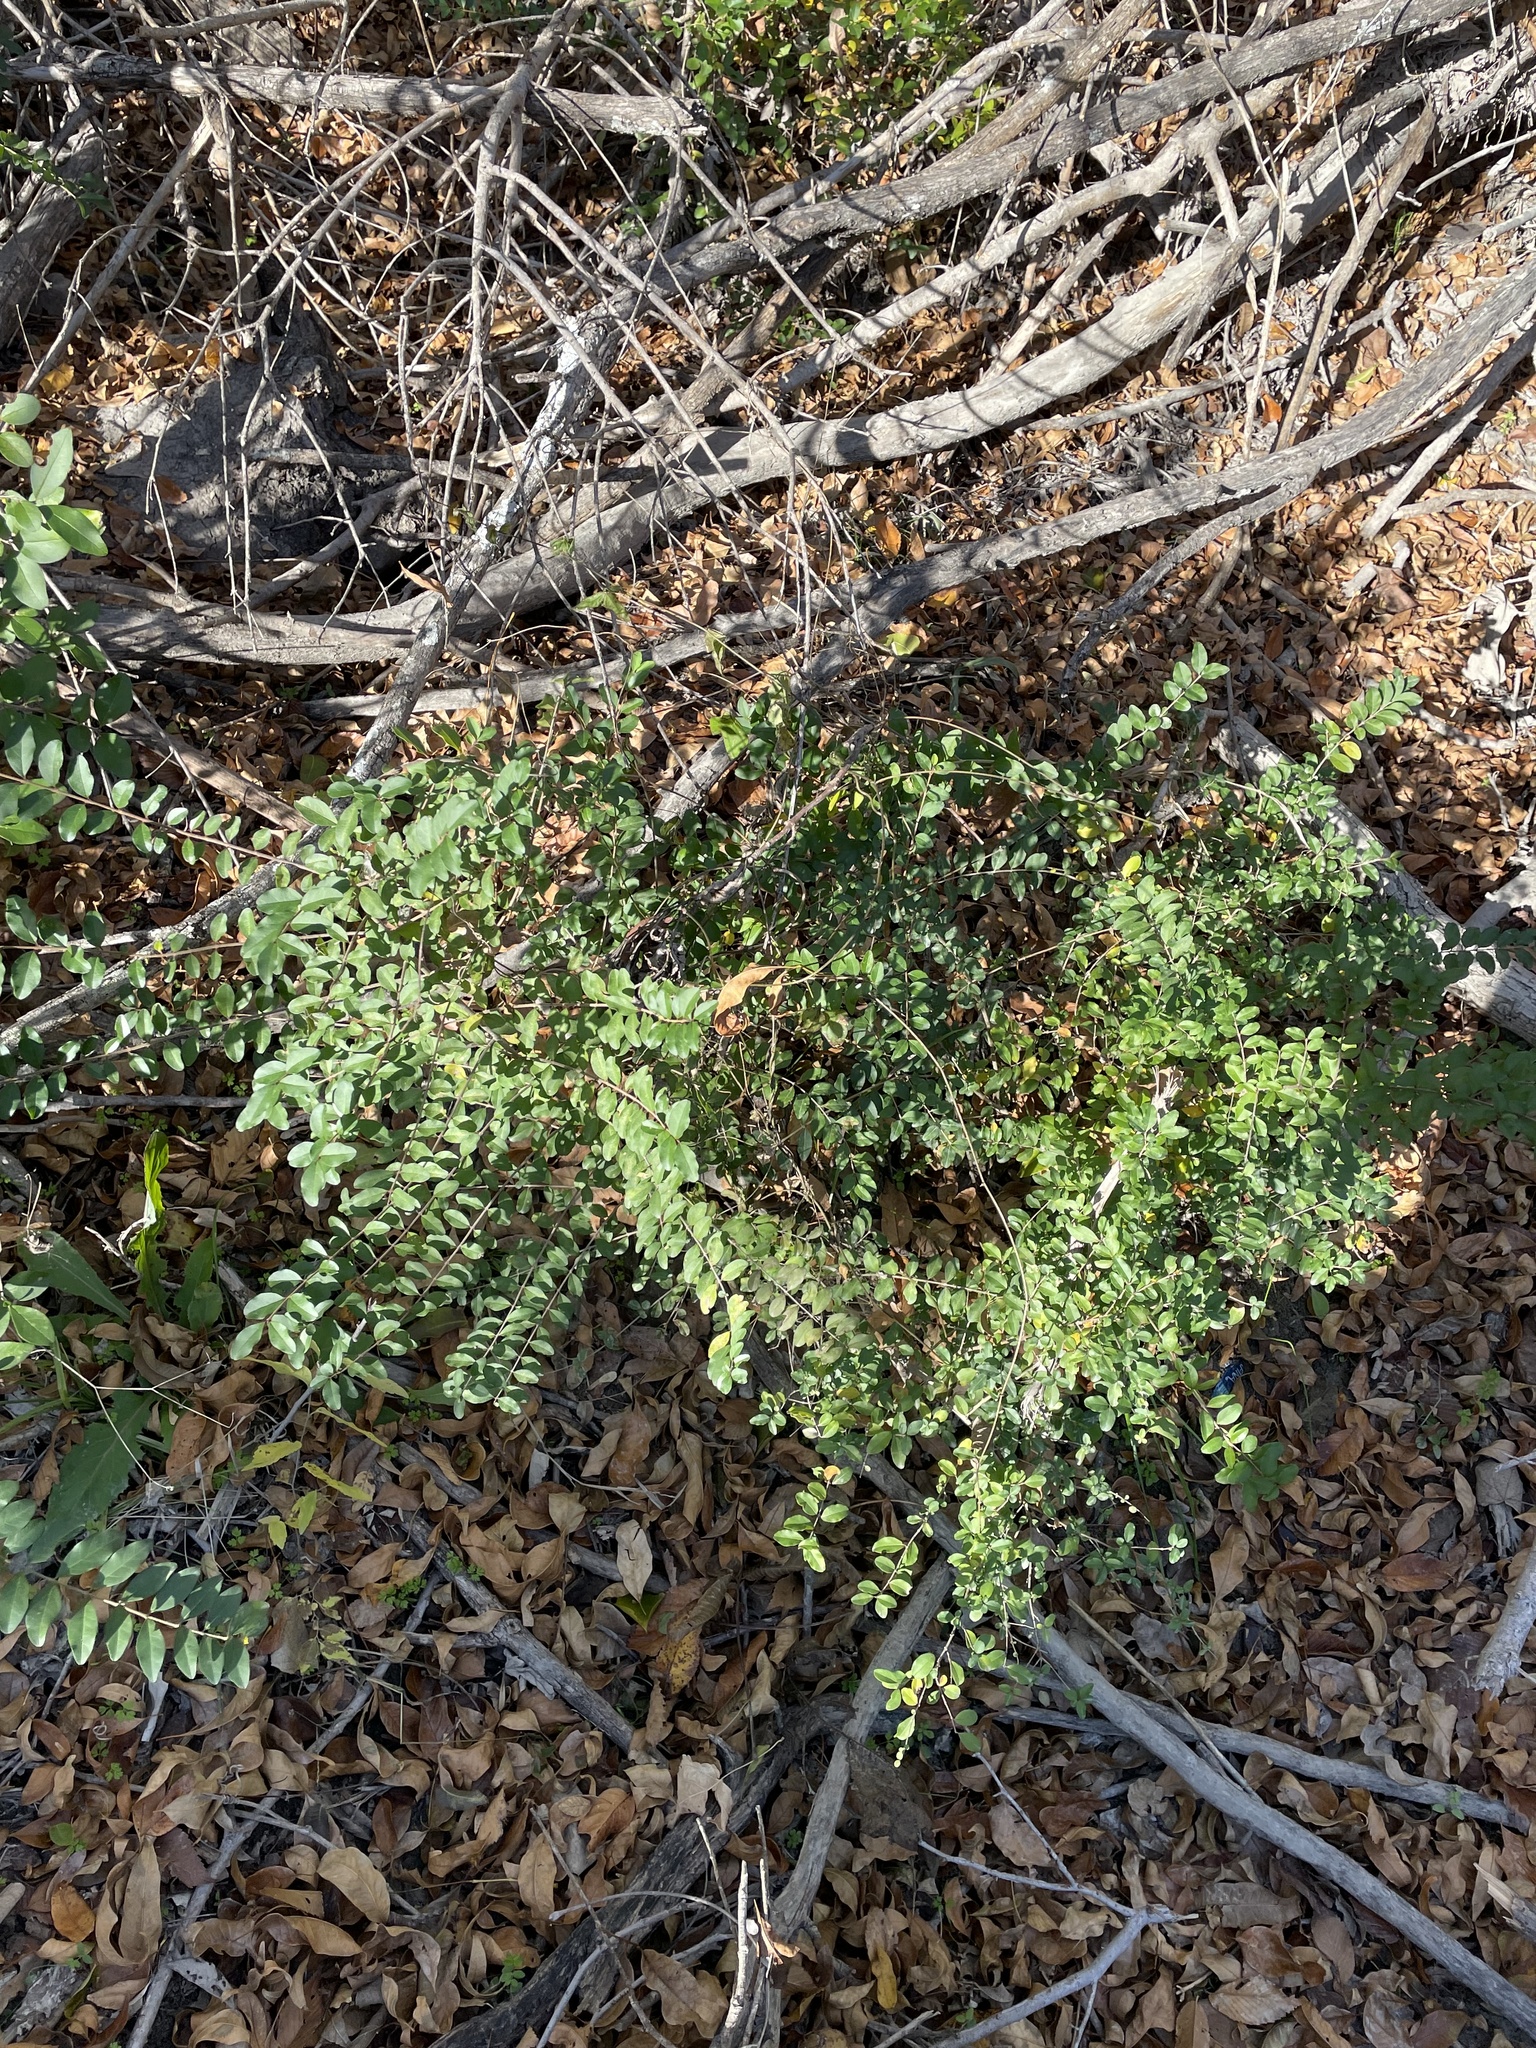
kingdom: Plantae
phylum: Tracheophyta
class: Magnoliopsida
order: Lamiales
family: Oleaceae
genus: Ligustrum
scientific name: Ligustrum sinense
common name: Chinese privet
